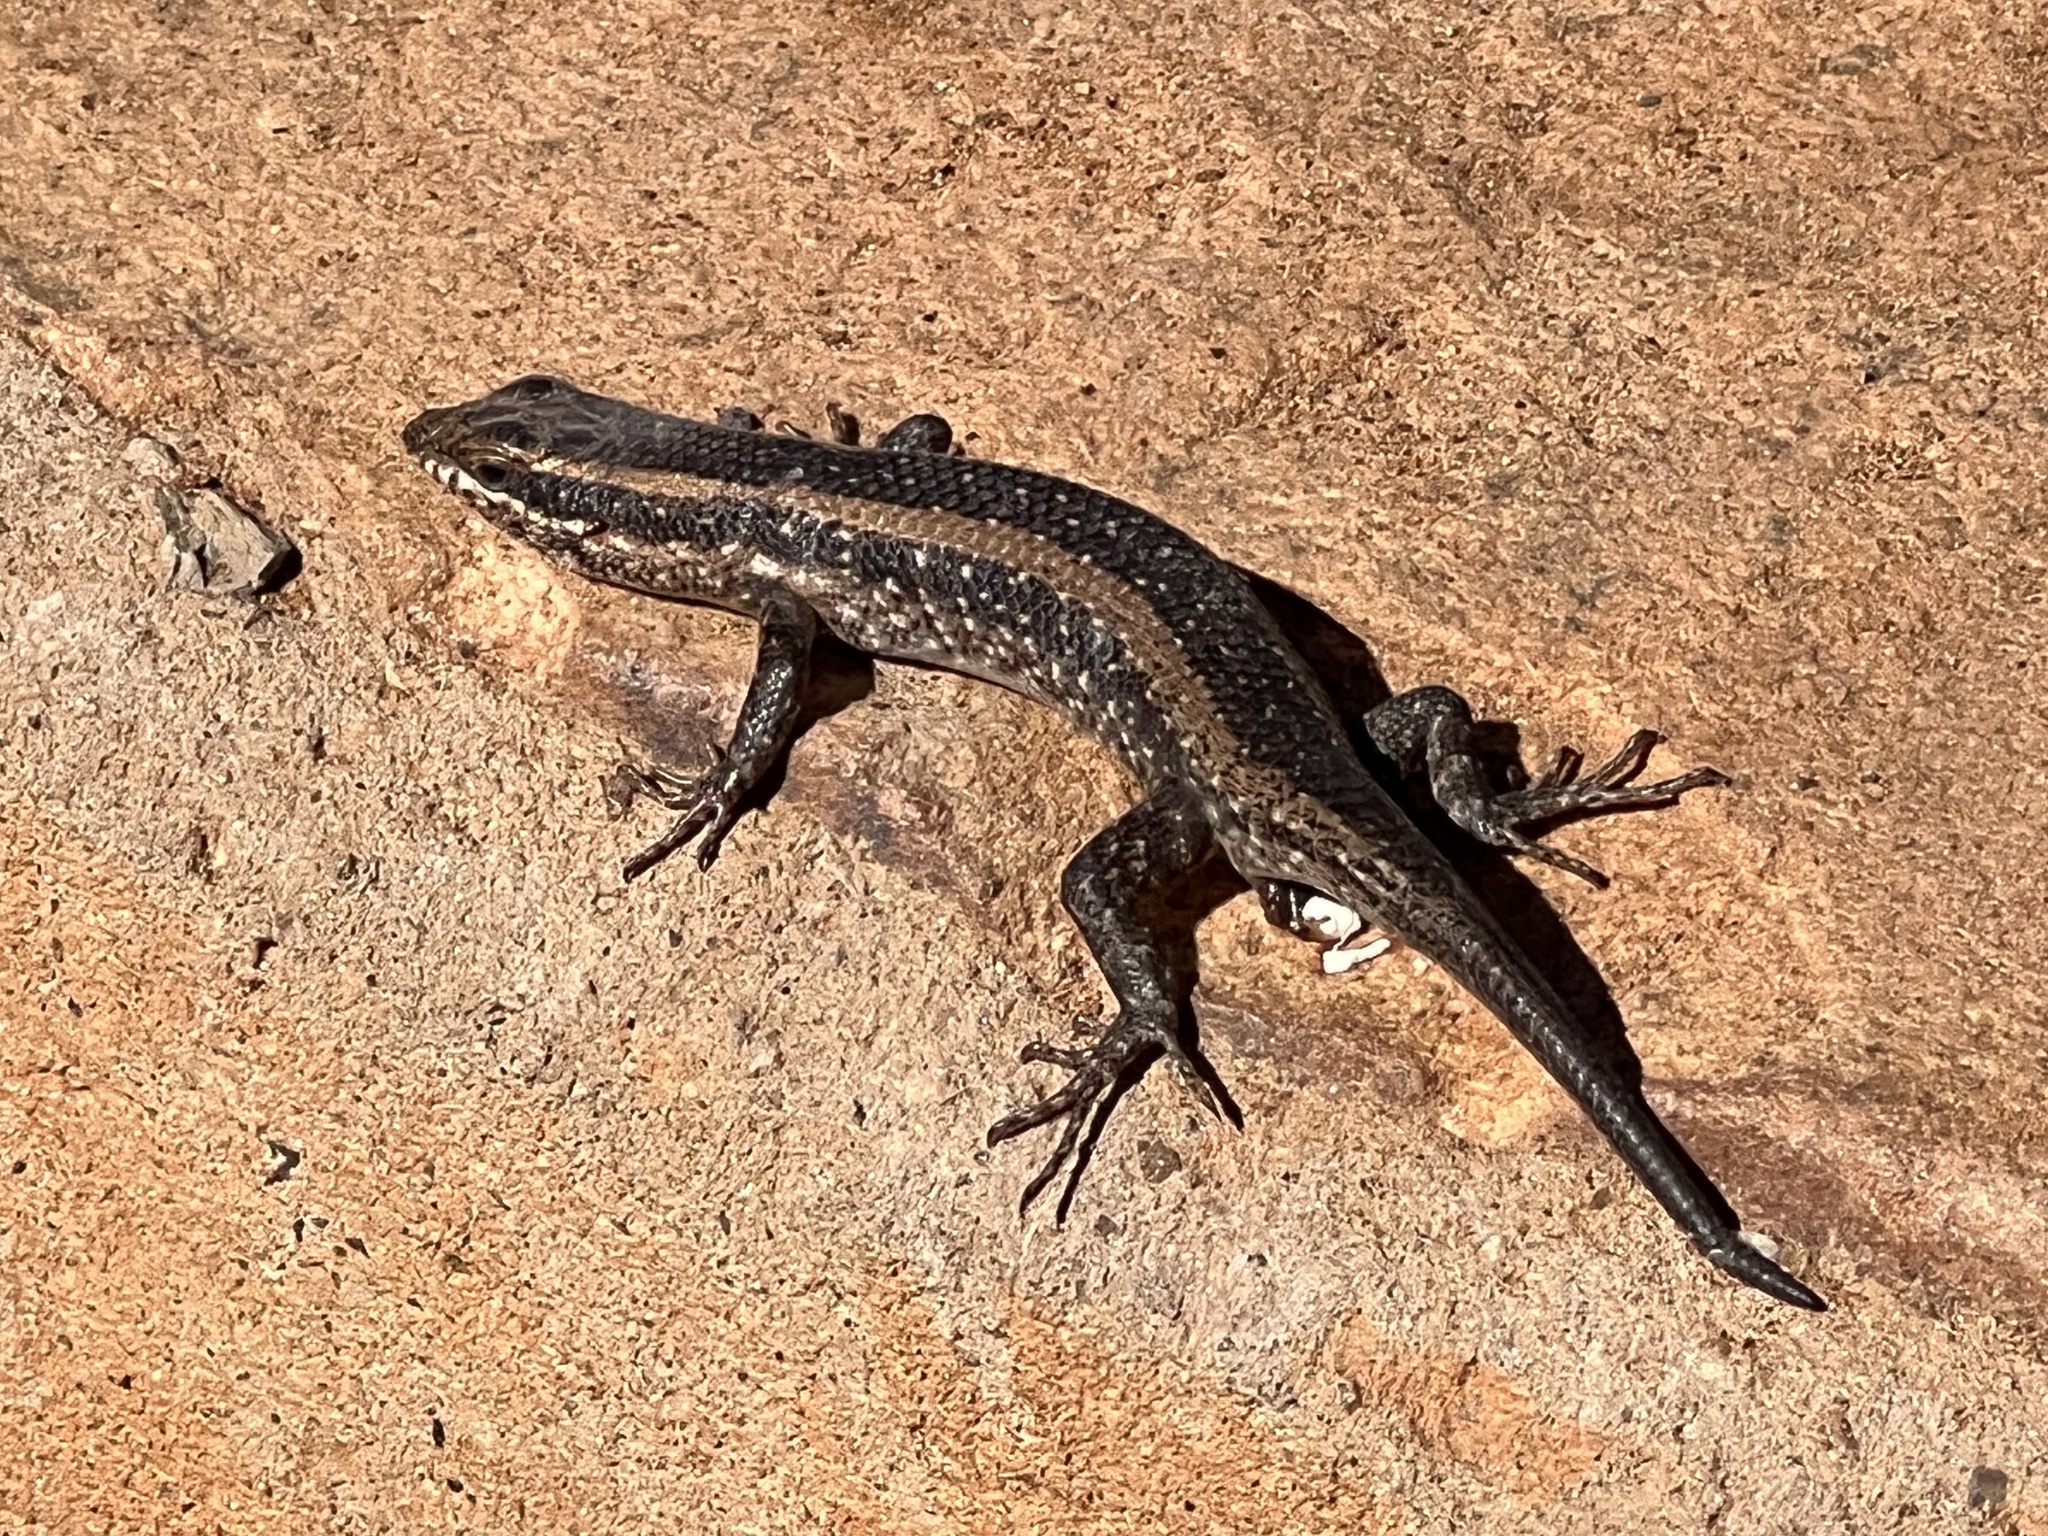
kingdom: Animalia
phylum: Chordata
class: Squamata
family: Scincidae
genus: Trachylepis
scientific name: Trachylepis spilogaster
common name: Kalahari tree skink
